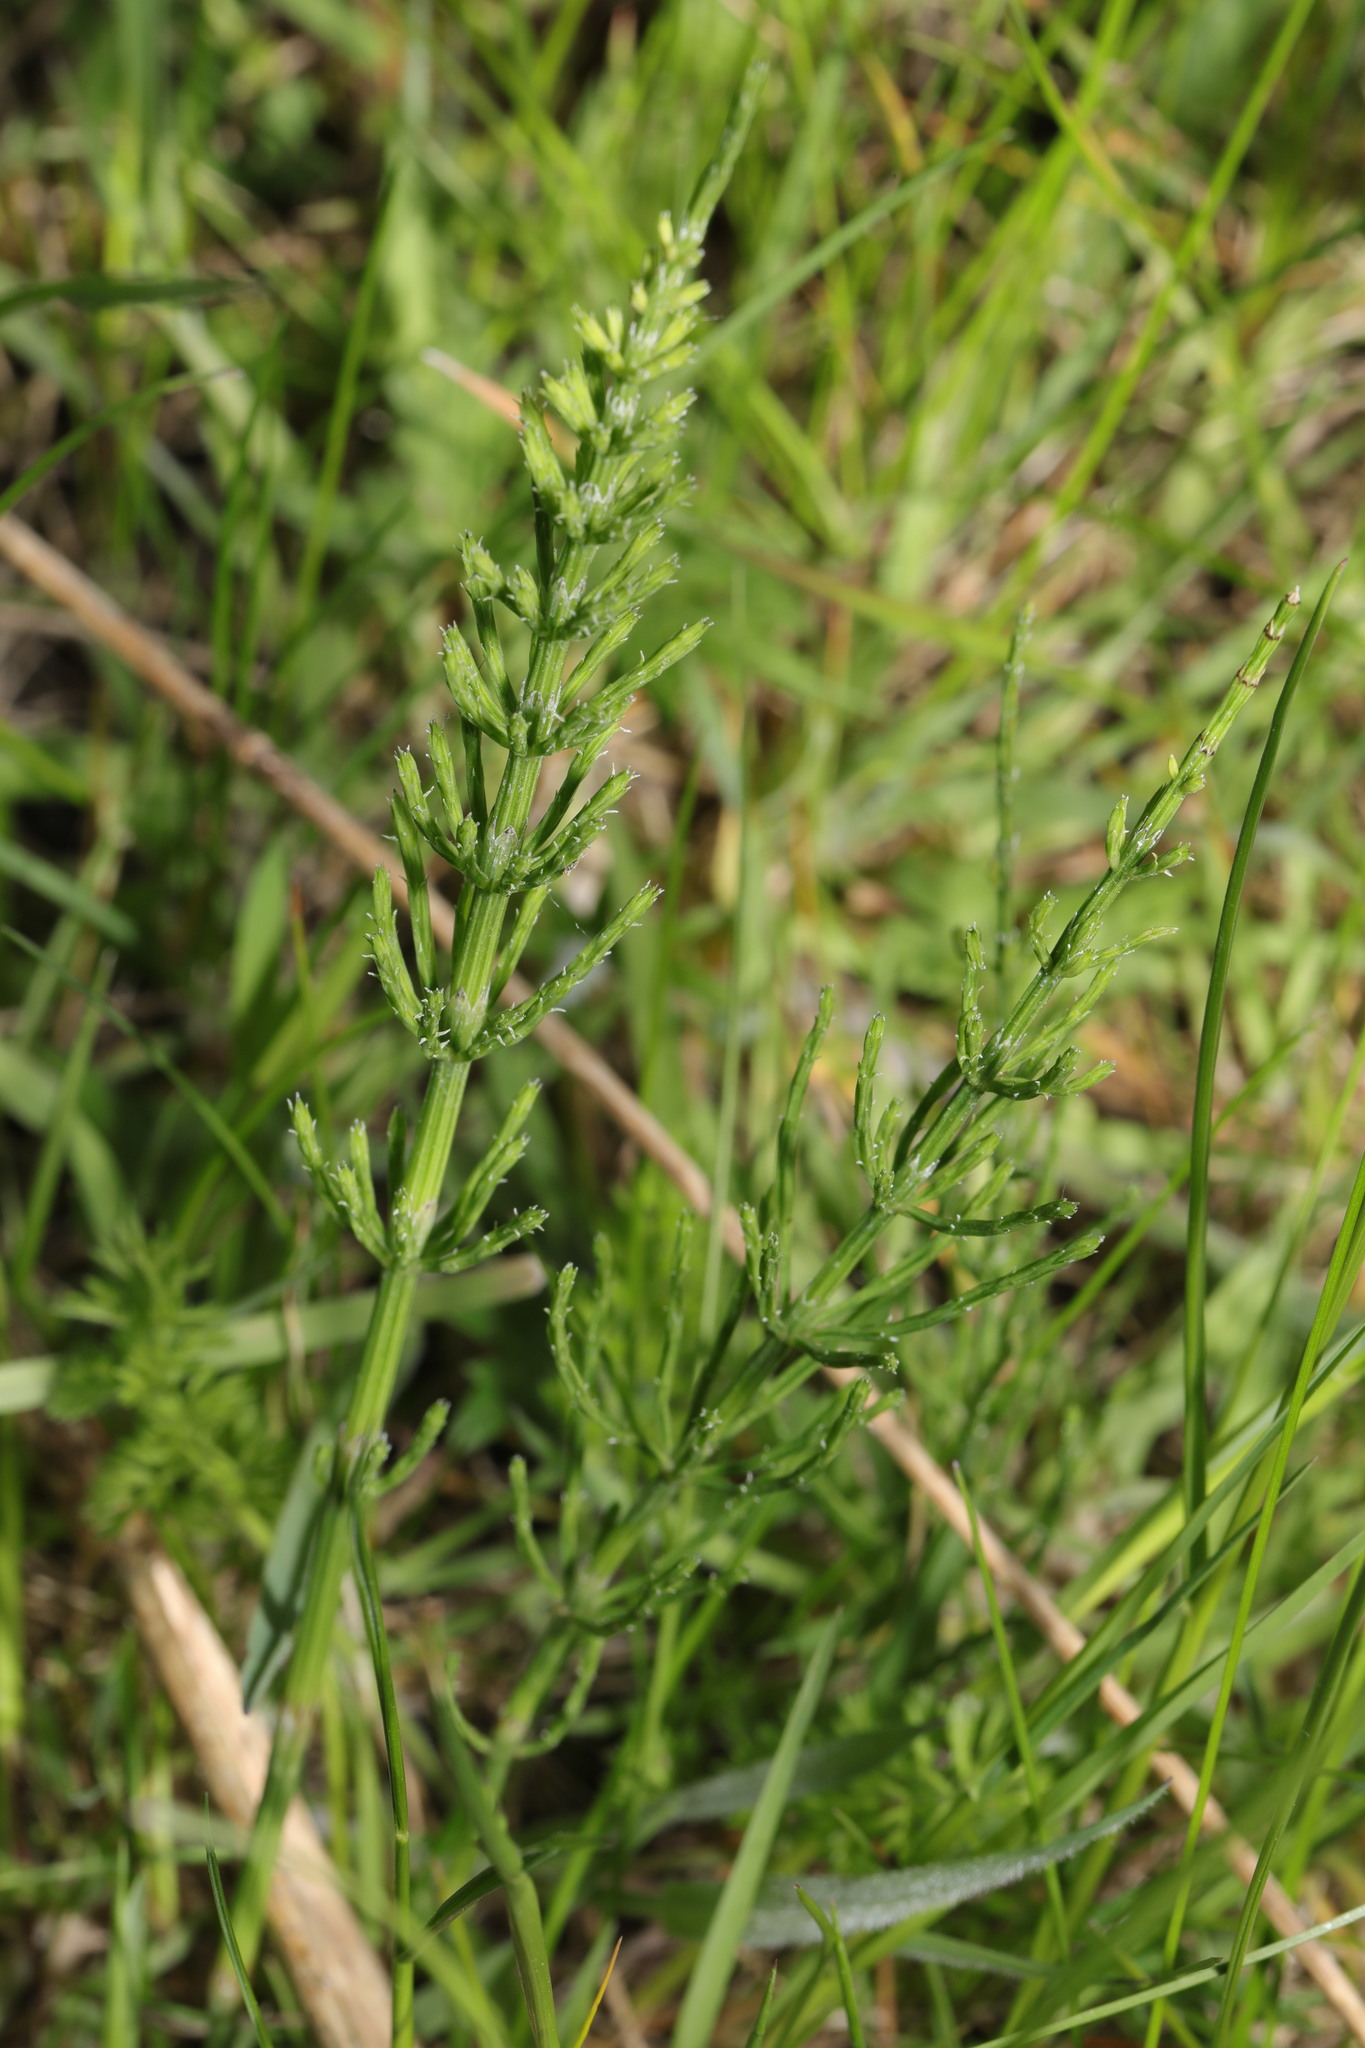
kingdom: Plantae
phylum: Tracheophyta
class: Polypodiopsida
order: Equisetales
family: Equisetaceae
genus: Equisetum
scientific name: Equisetum arvense
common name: Field horsetail
